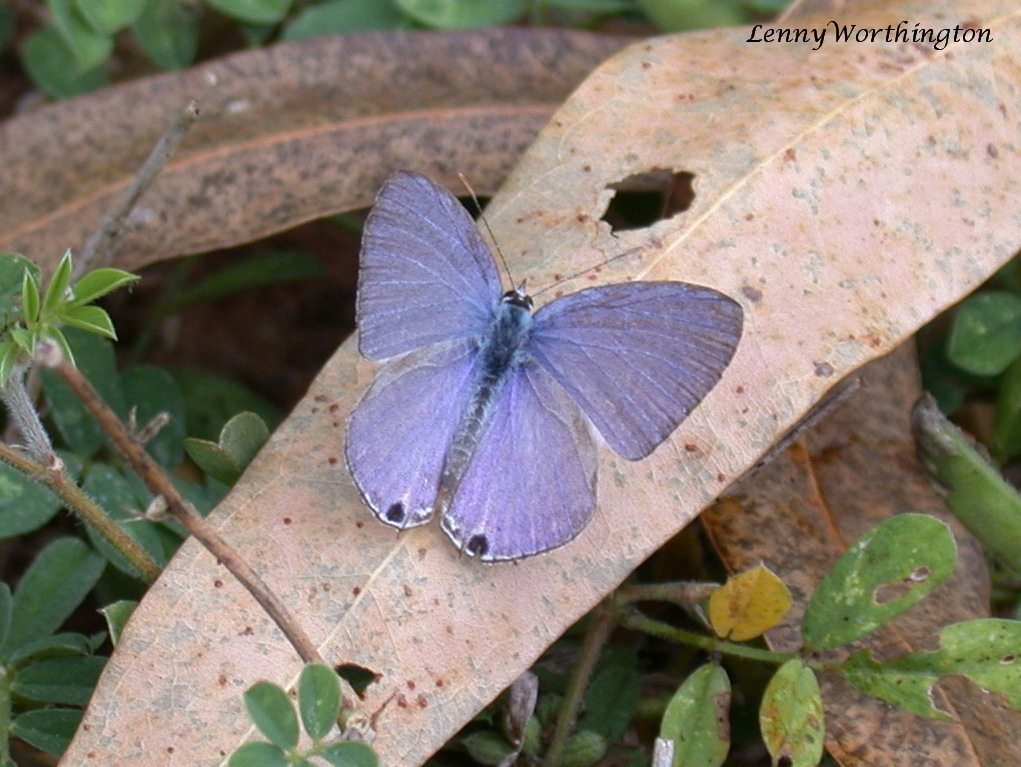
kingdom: Animalia
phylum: Arthropoda
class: Insecta
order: Lepidoptera
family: Lycaenidae
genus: Catochrysops
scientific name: Catochrysops strabo
